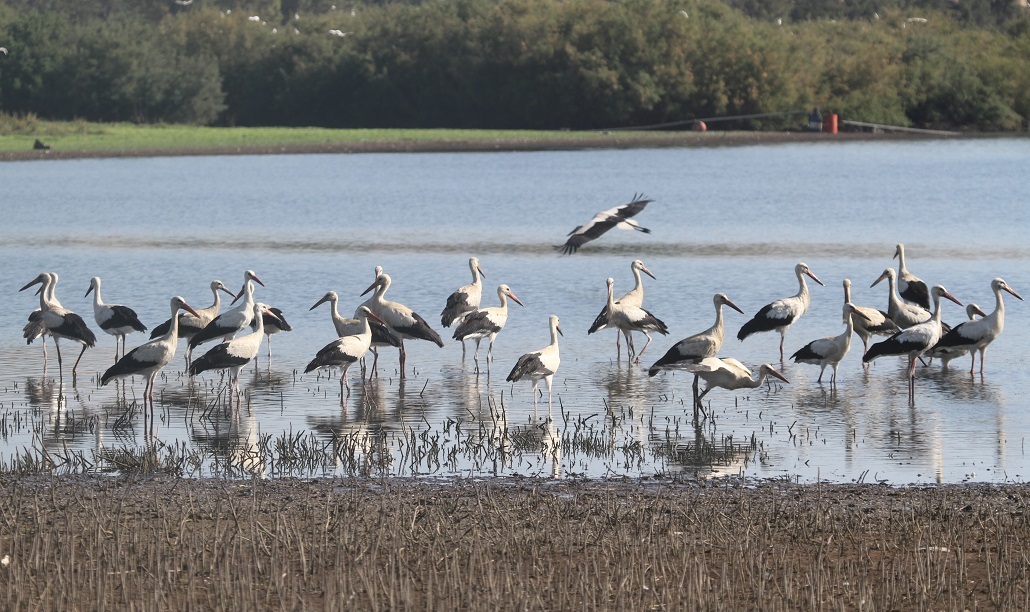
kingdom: Animalia
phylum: Chordata
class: Aves
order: Ciconiiformes
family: Ciconiidae
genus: Ciconia
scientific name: Ciconia ciconia
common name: White stork
